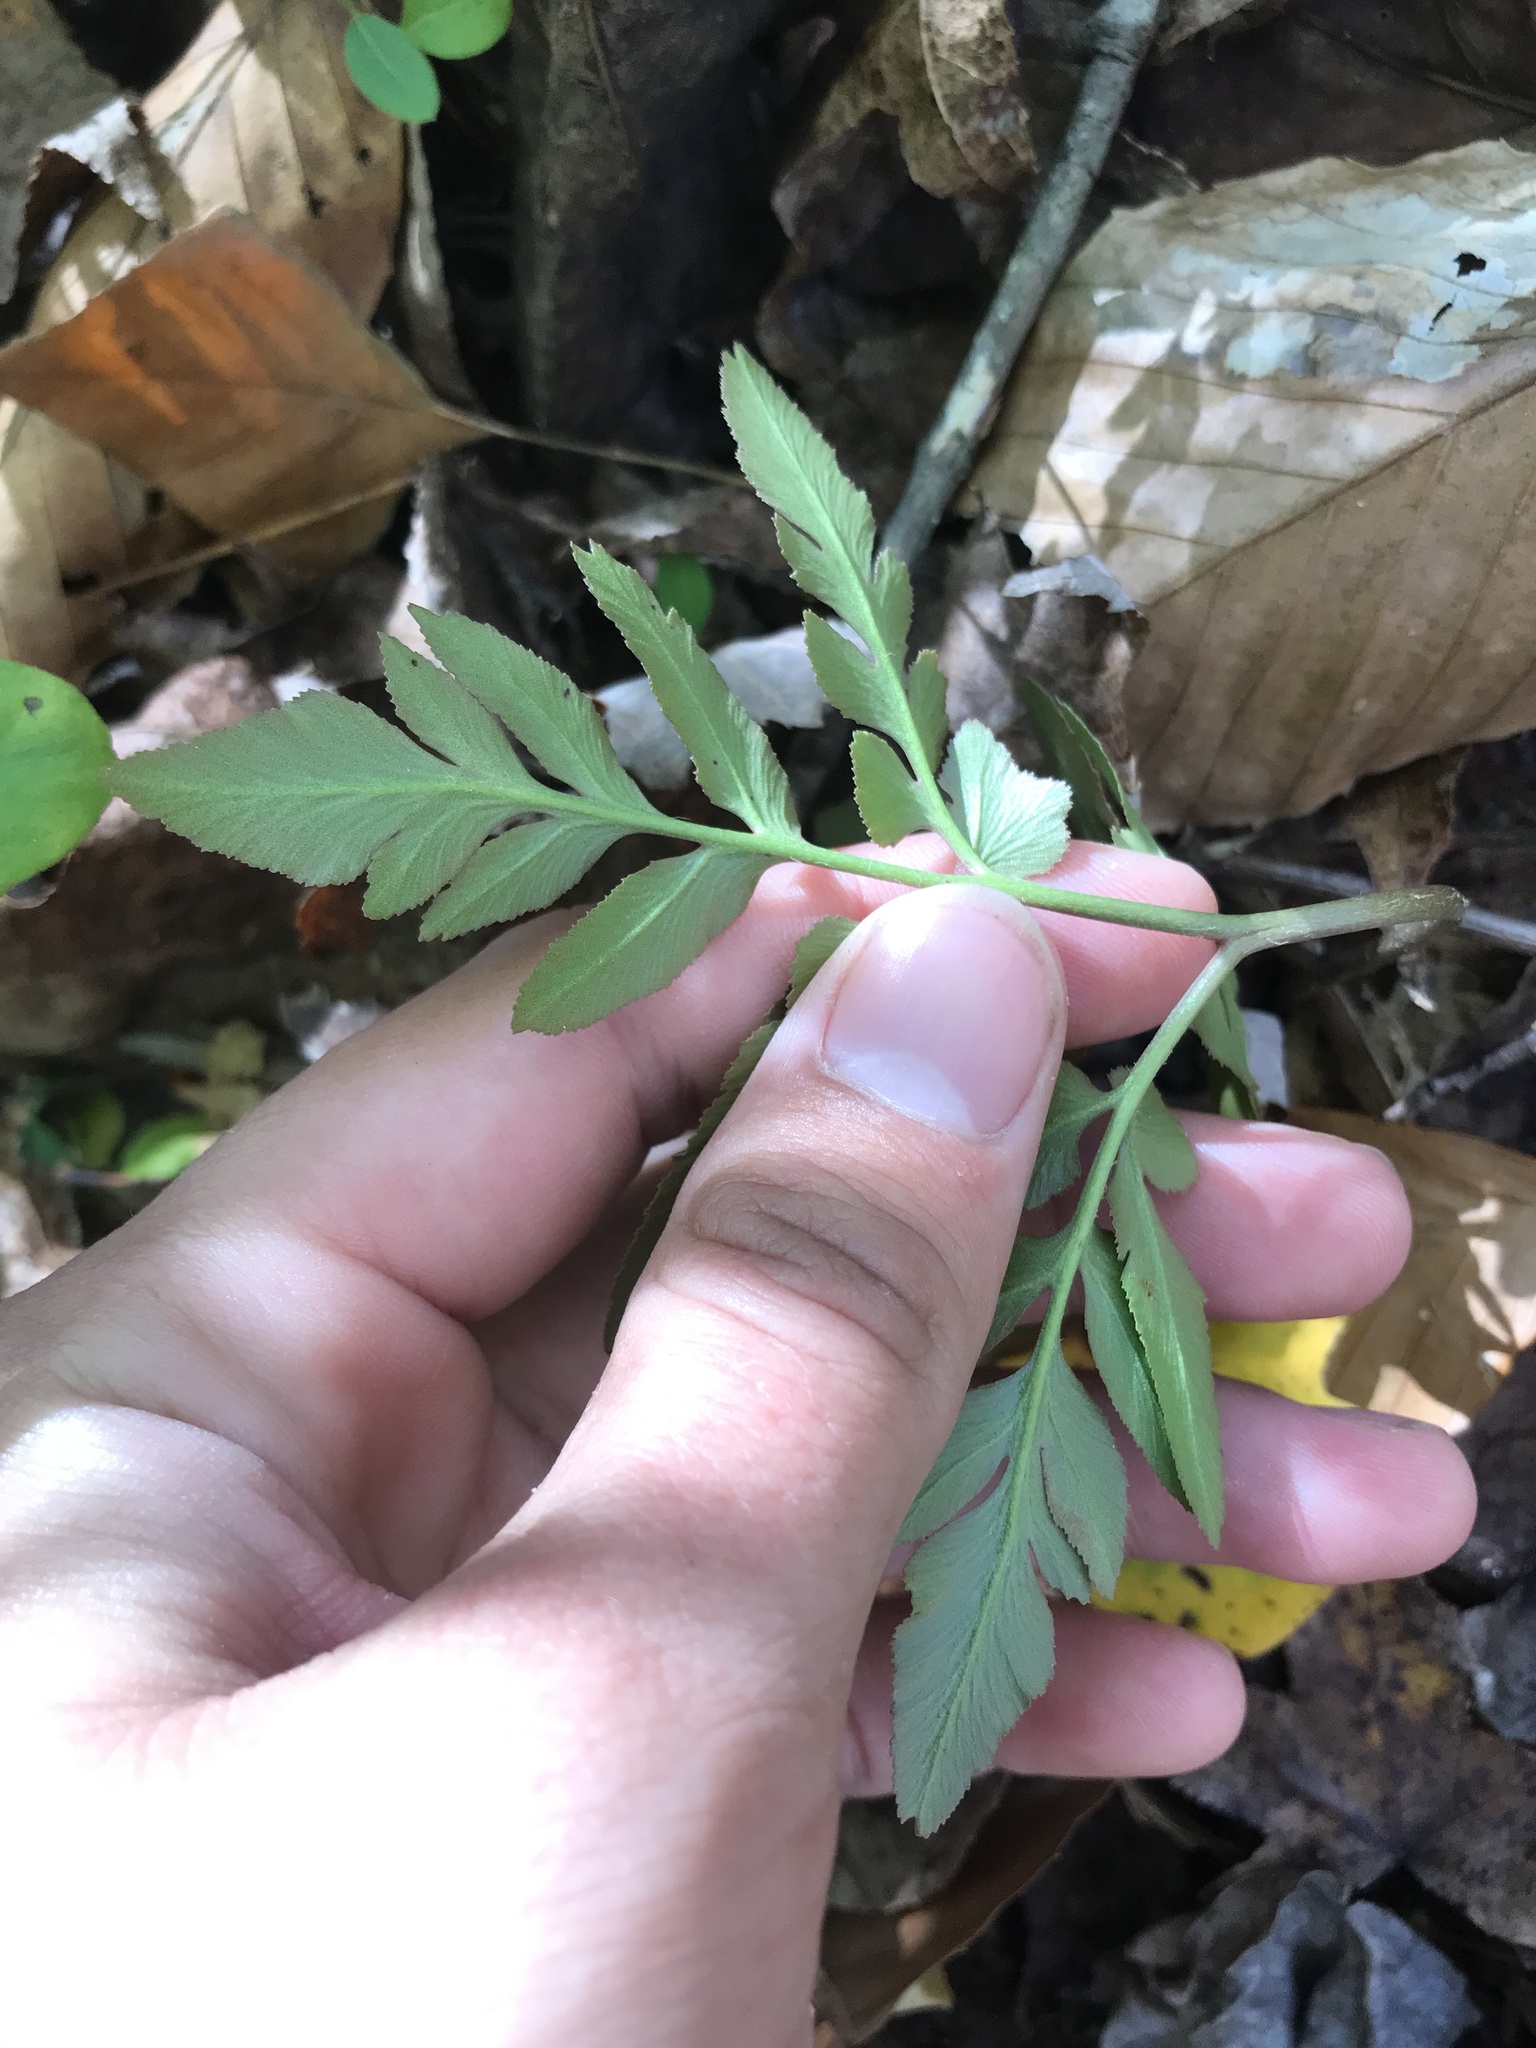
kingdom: Plantae
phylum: Tracheophyta
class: Polypodiopsida
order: Ophioglossales
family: Ophioglossaceae
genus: Sceptridium
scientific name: Sceptridium dissectum
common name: Cut-leaved grapefern
